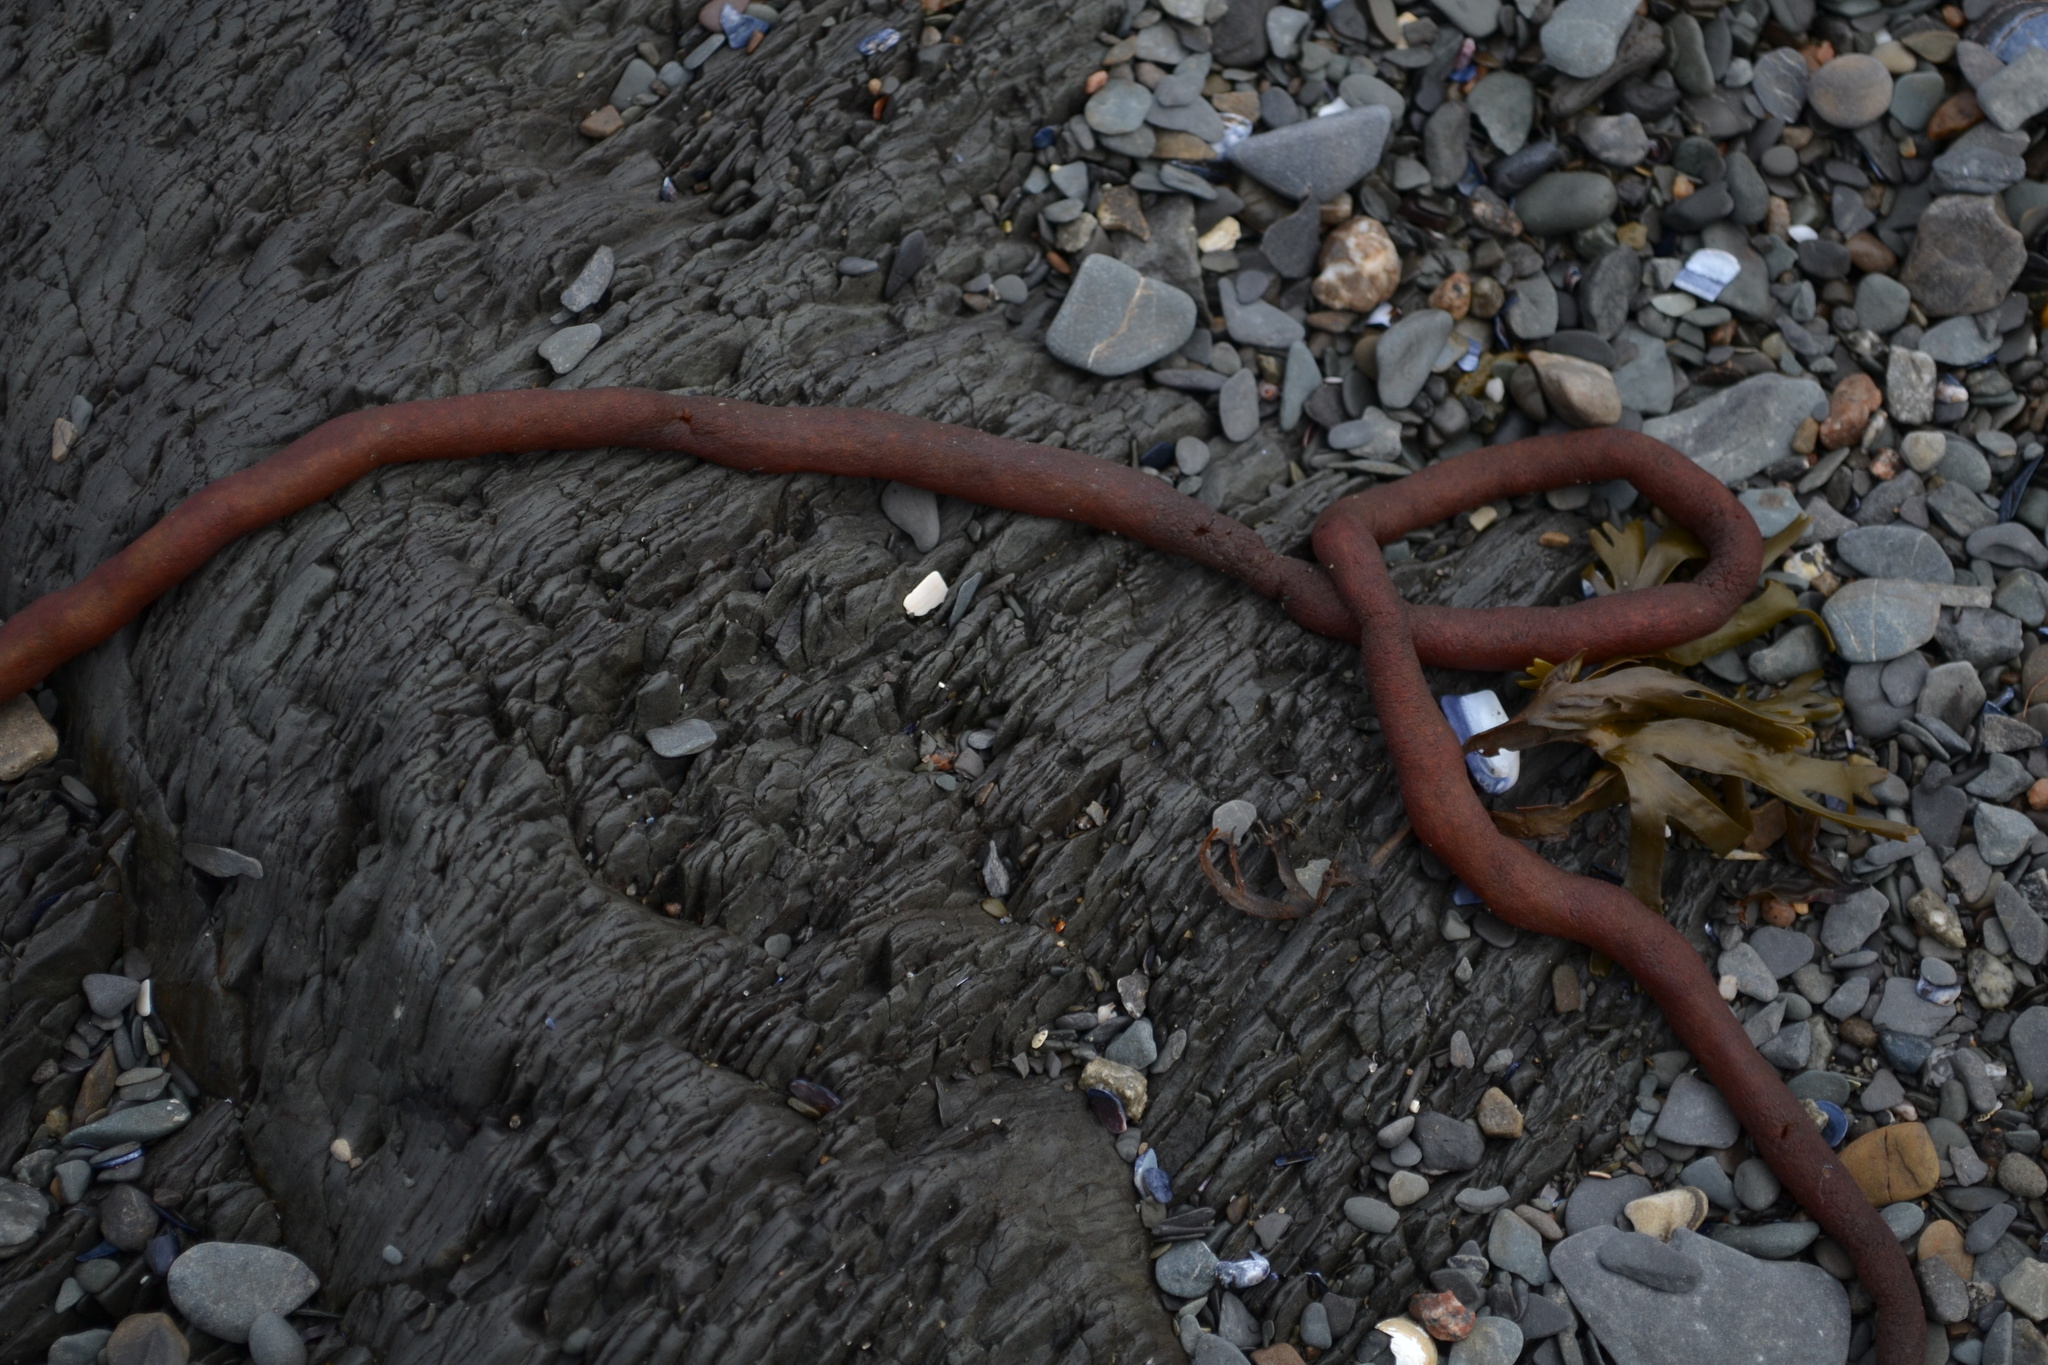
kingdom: Animalia
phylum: Bryozoa
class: Gymnolaemata
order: Ctenostomatida
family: Alcyonidiidae
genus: Alcyonidium
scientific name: Alcyonidium pachydermatum
